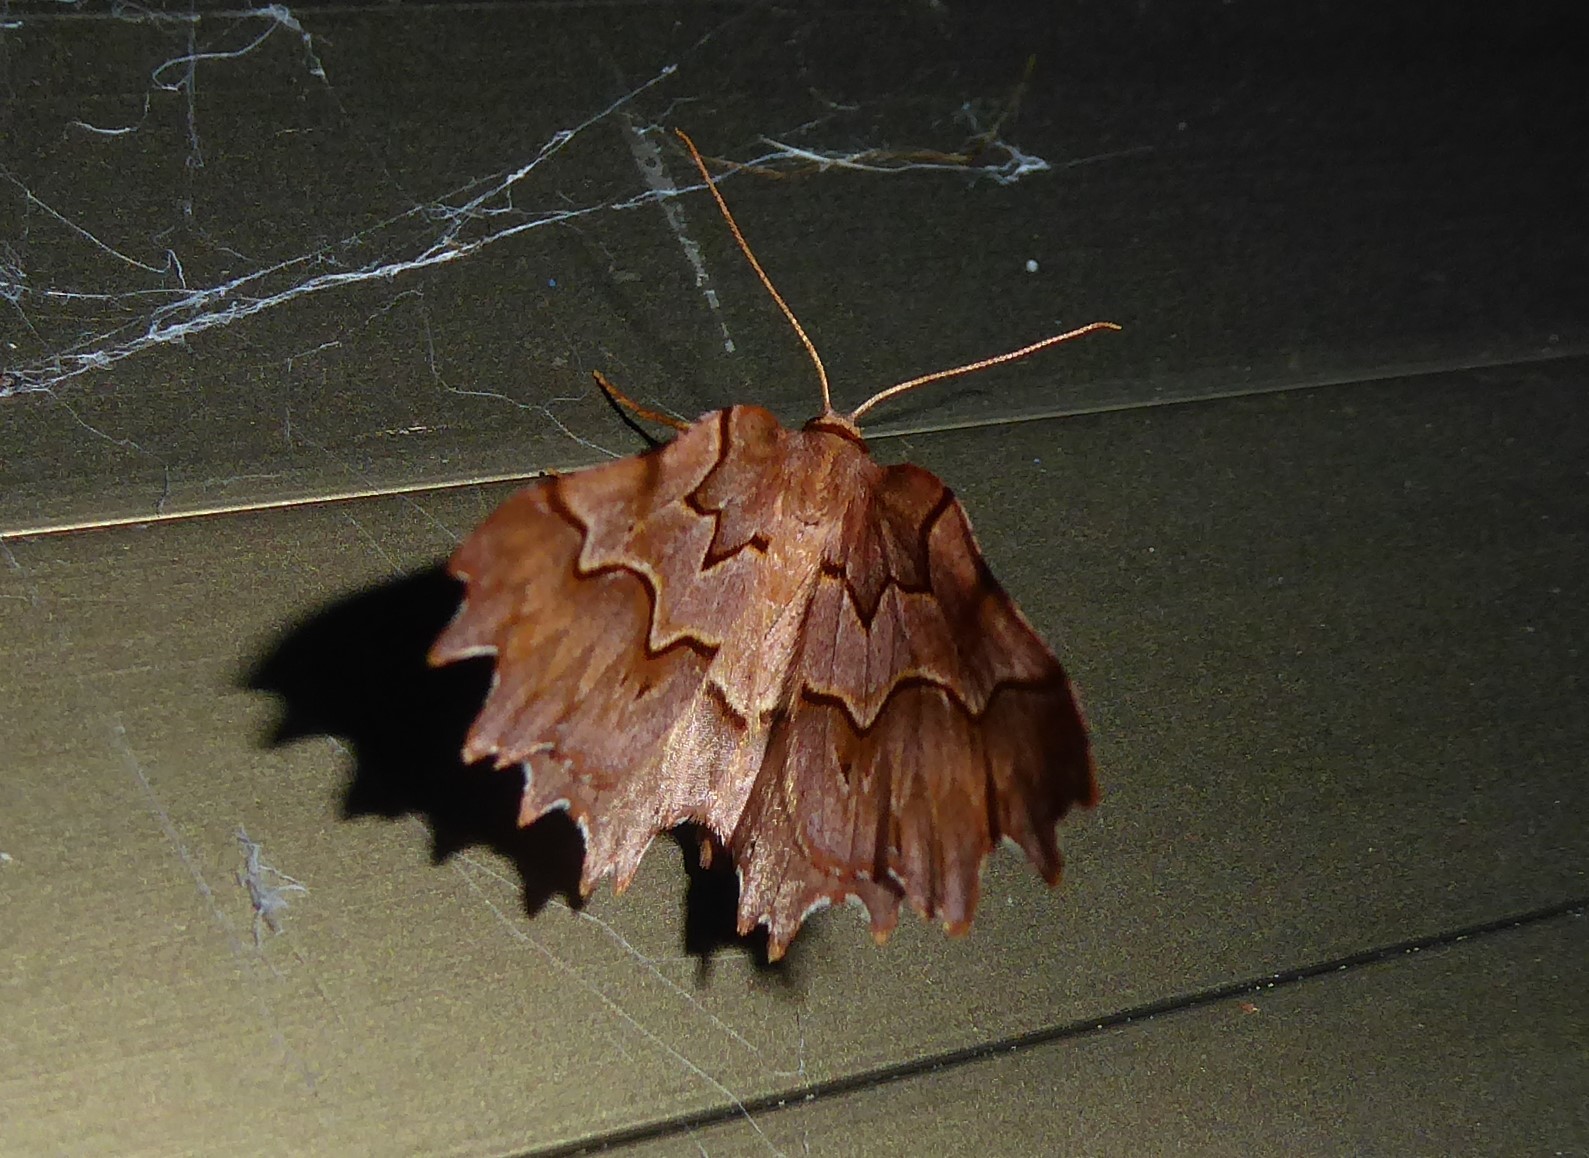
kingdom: Animalia
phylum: Arthropoda
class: Insecta
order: Lepidoptera
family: Geometridae
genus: Ischalis
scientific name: Ischalis fortinata
